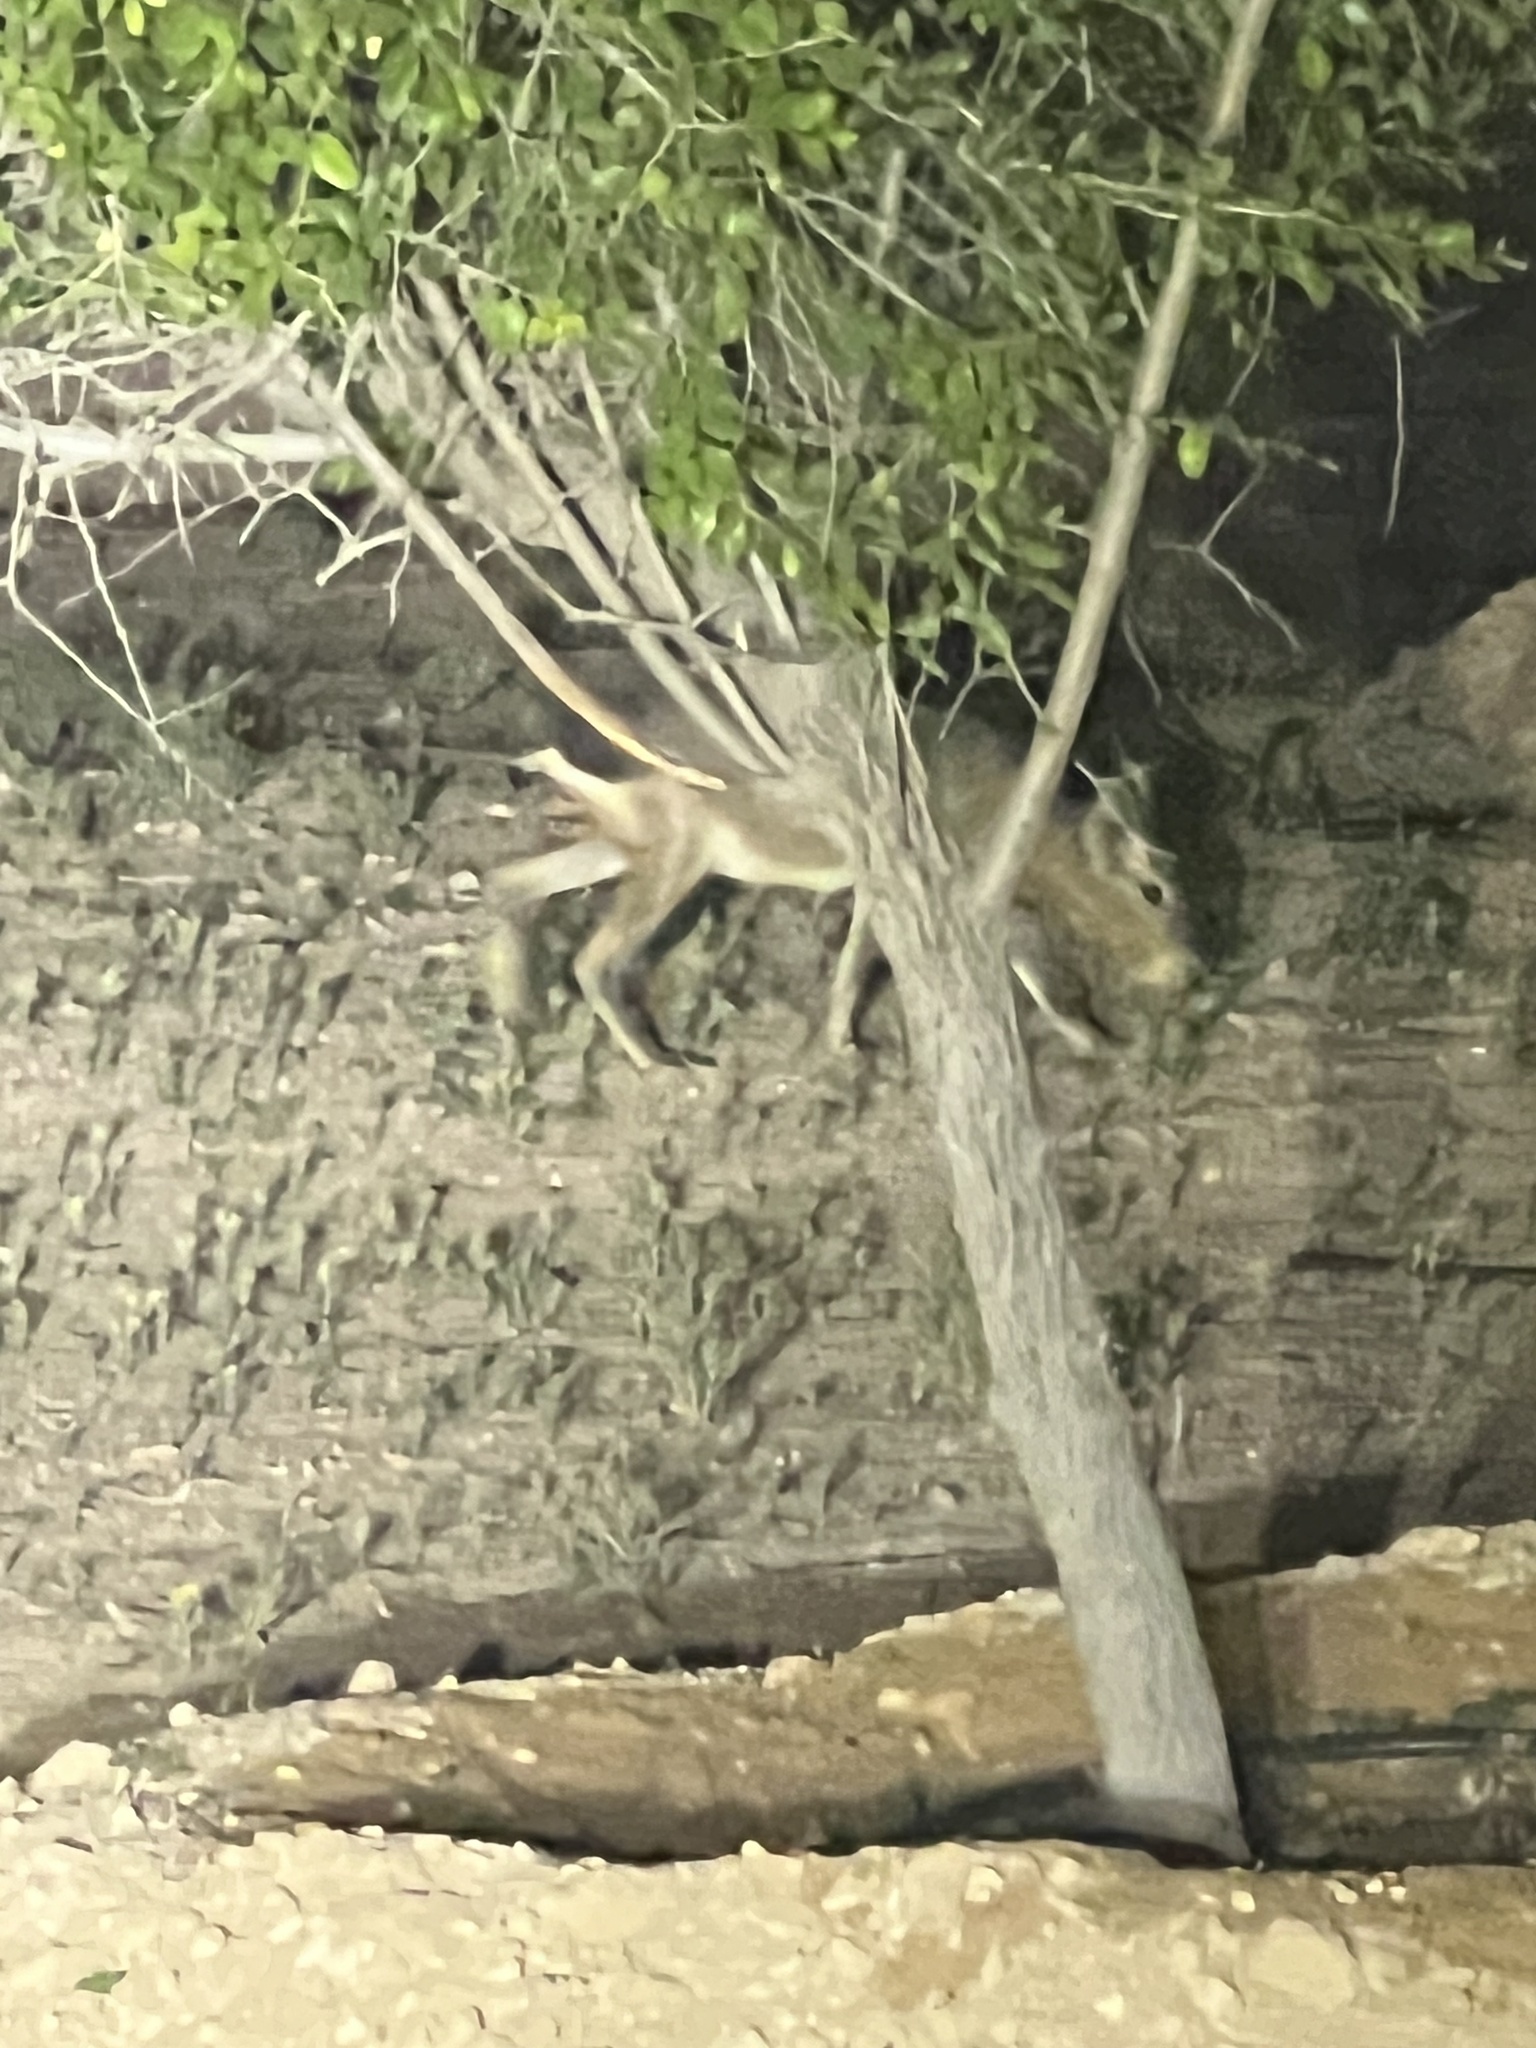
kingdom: Animalia
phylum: Chordata
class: Mammalia
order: Rodentia
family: Caviidae
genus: Dolichotis
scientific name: Dolichotis patagonum
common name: Patagonian mara
